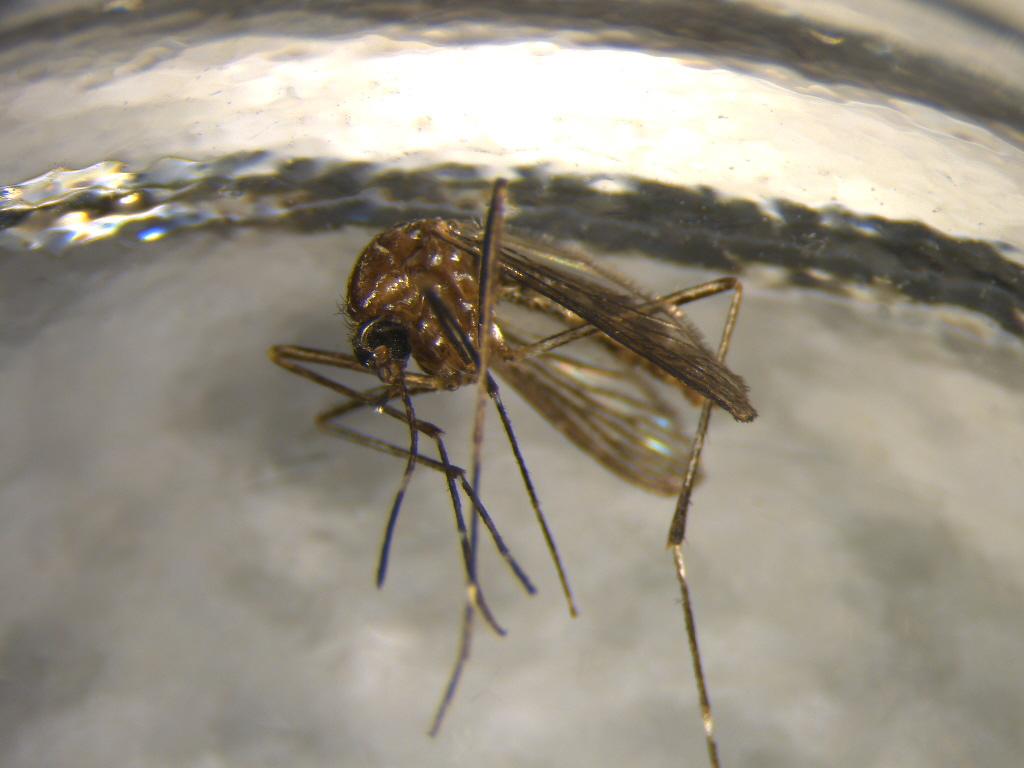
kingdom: Animalia
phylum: Arthropoda
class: Insecta
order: Diptera
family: Culicidae
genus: Aedes
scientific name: Aedes notoscriptus
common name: Australian backyard mosquito
